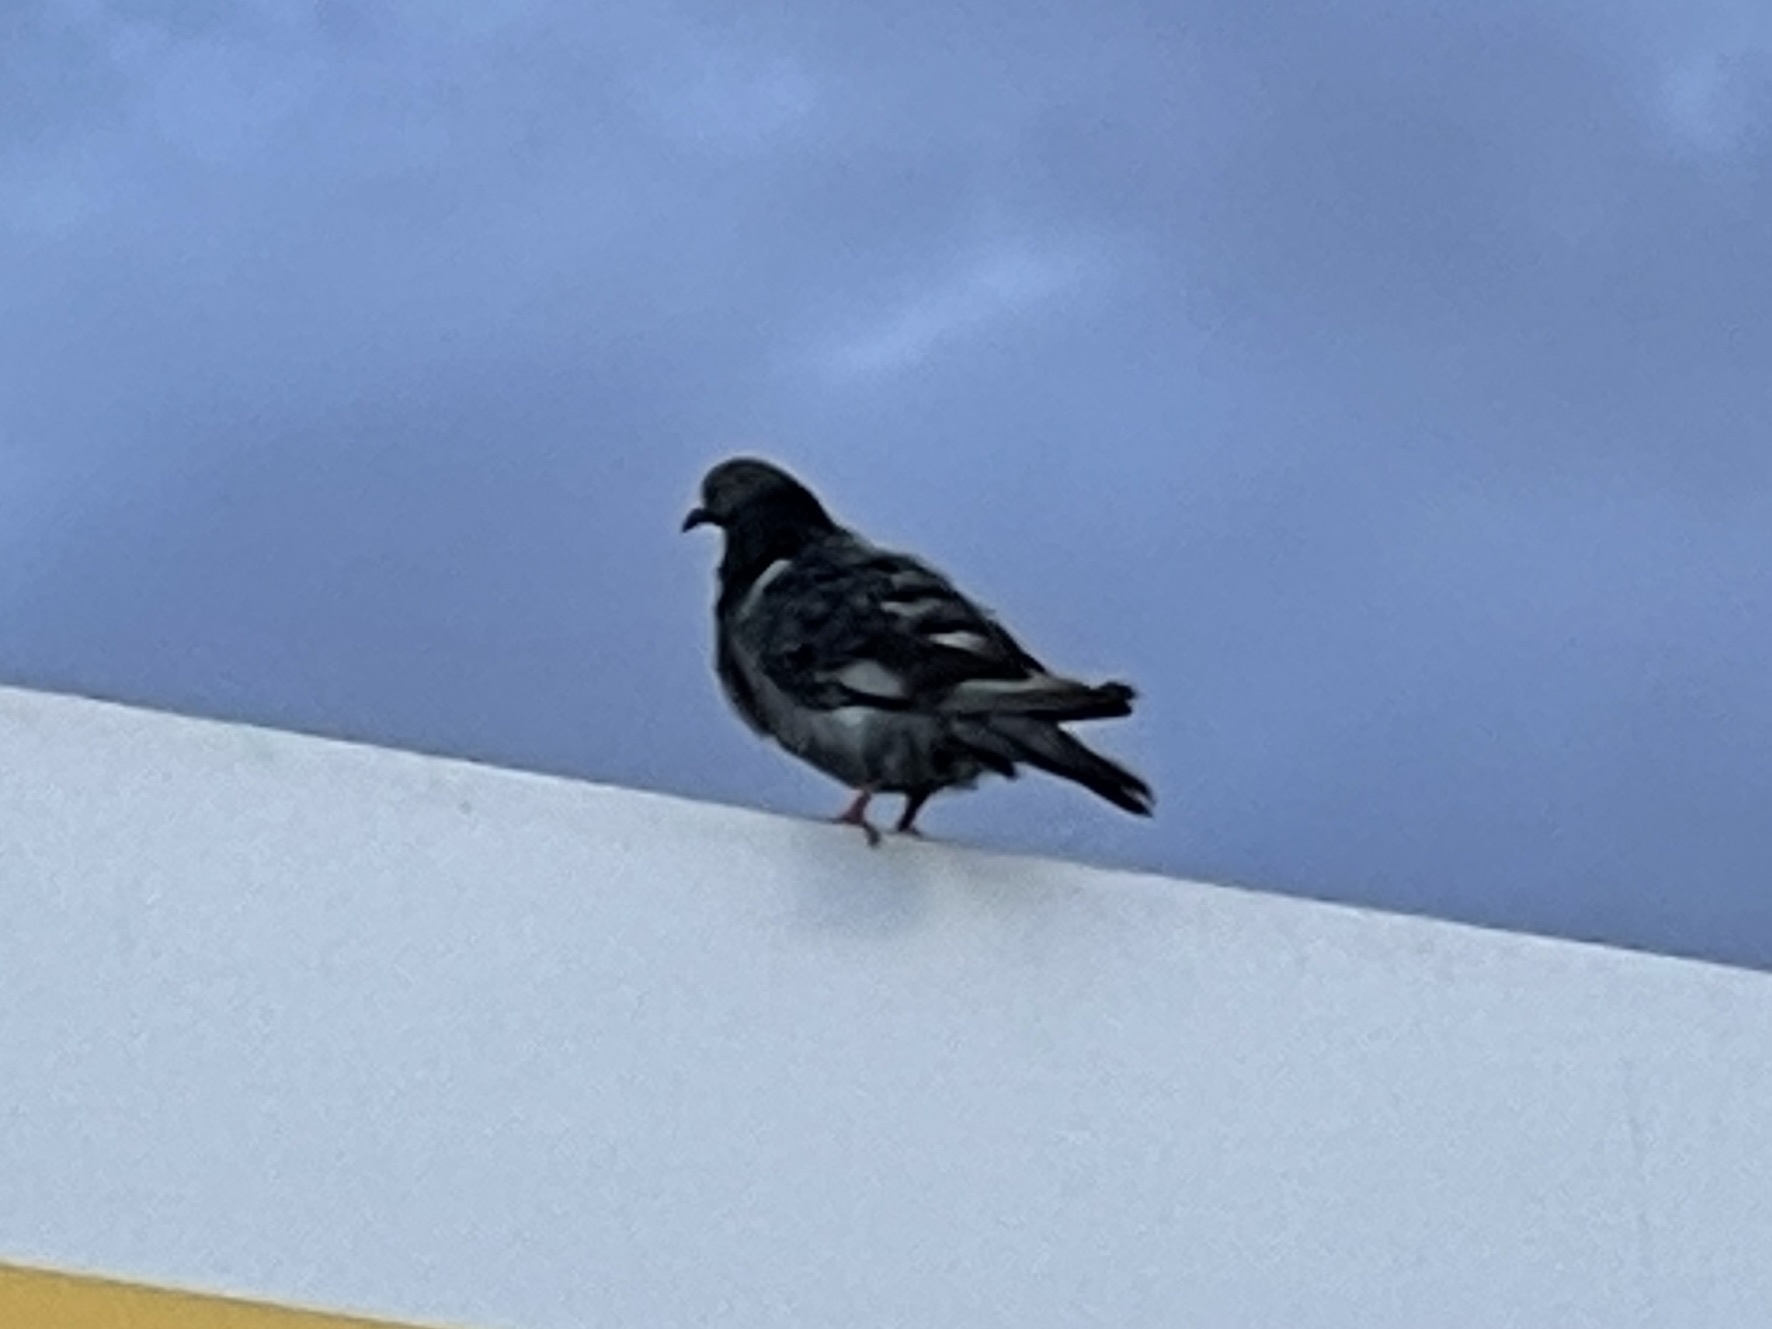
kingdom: Animalia
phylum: Chordata
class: Aves
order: Columbiformes
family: Columbidae
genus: Columba
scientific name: Columba livia
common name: Rock pigeon
